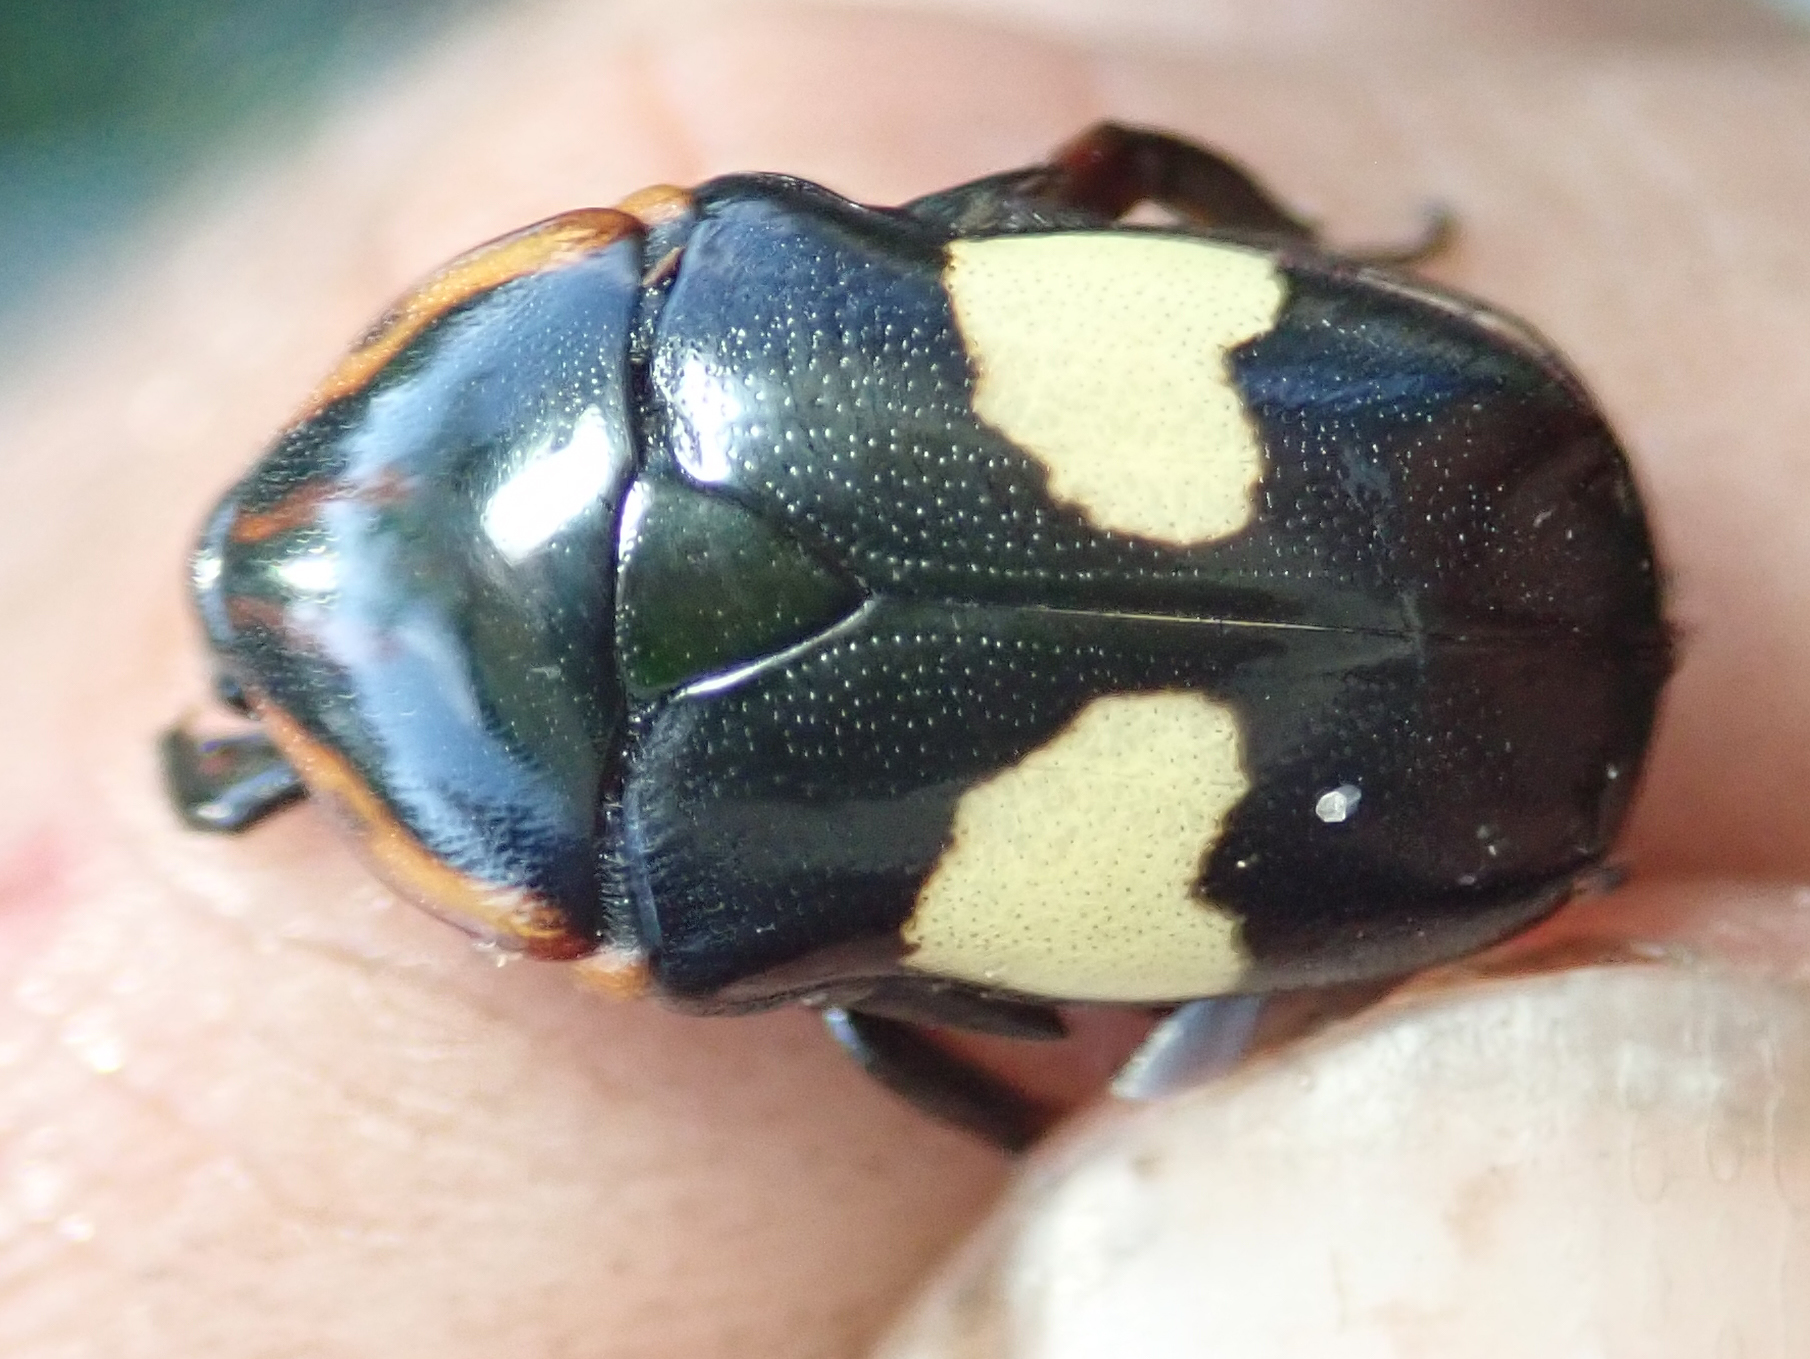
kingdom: Animalia
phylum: Arthropoda
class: Insecta
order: Coleoptera
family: Scarabaeidae
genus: Pedinorrhina
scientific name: Pedinorrhina
